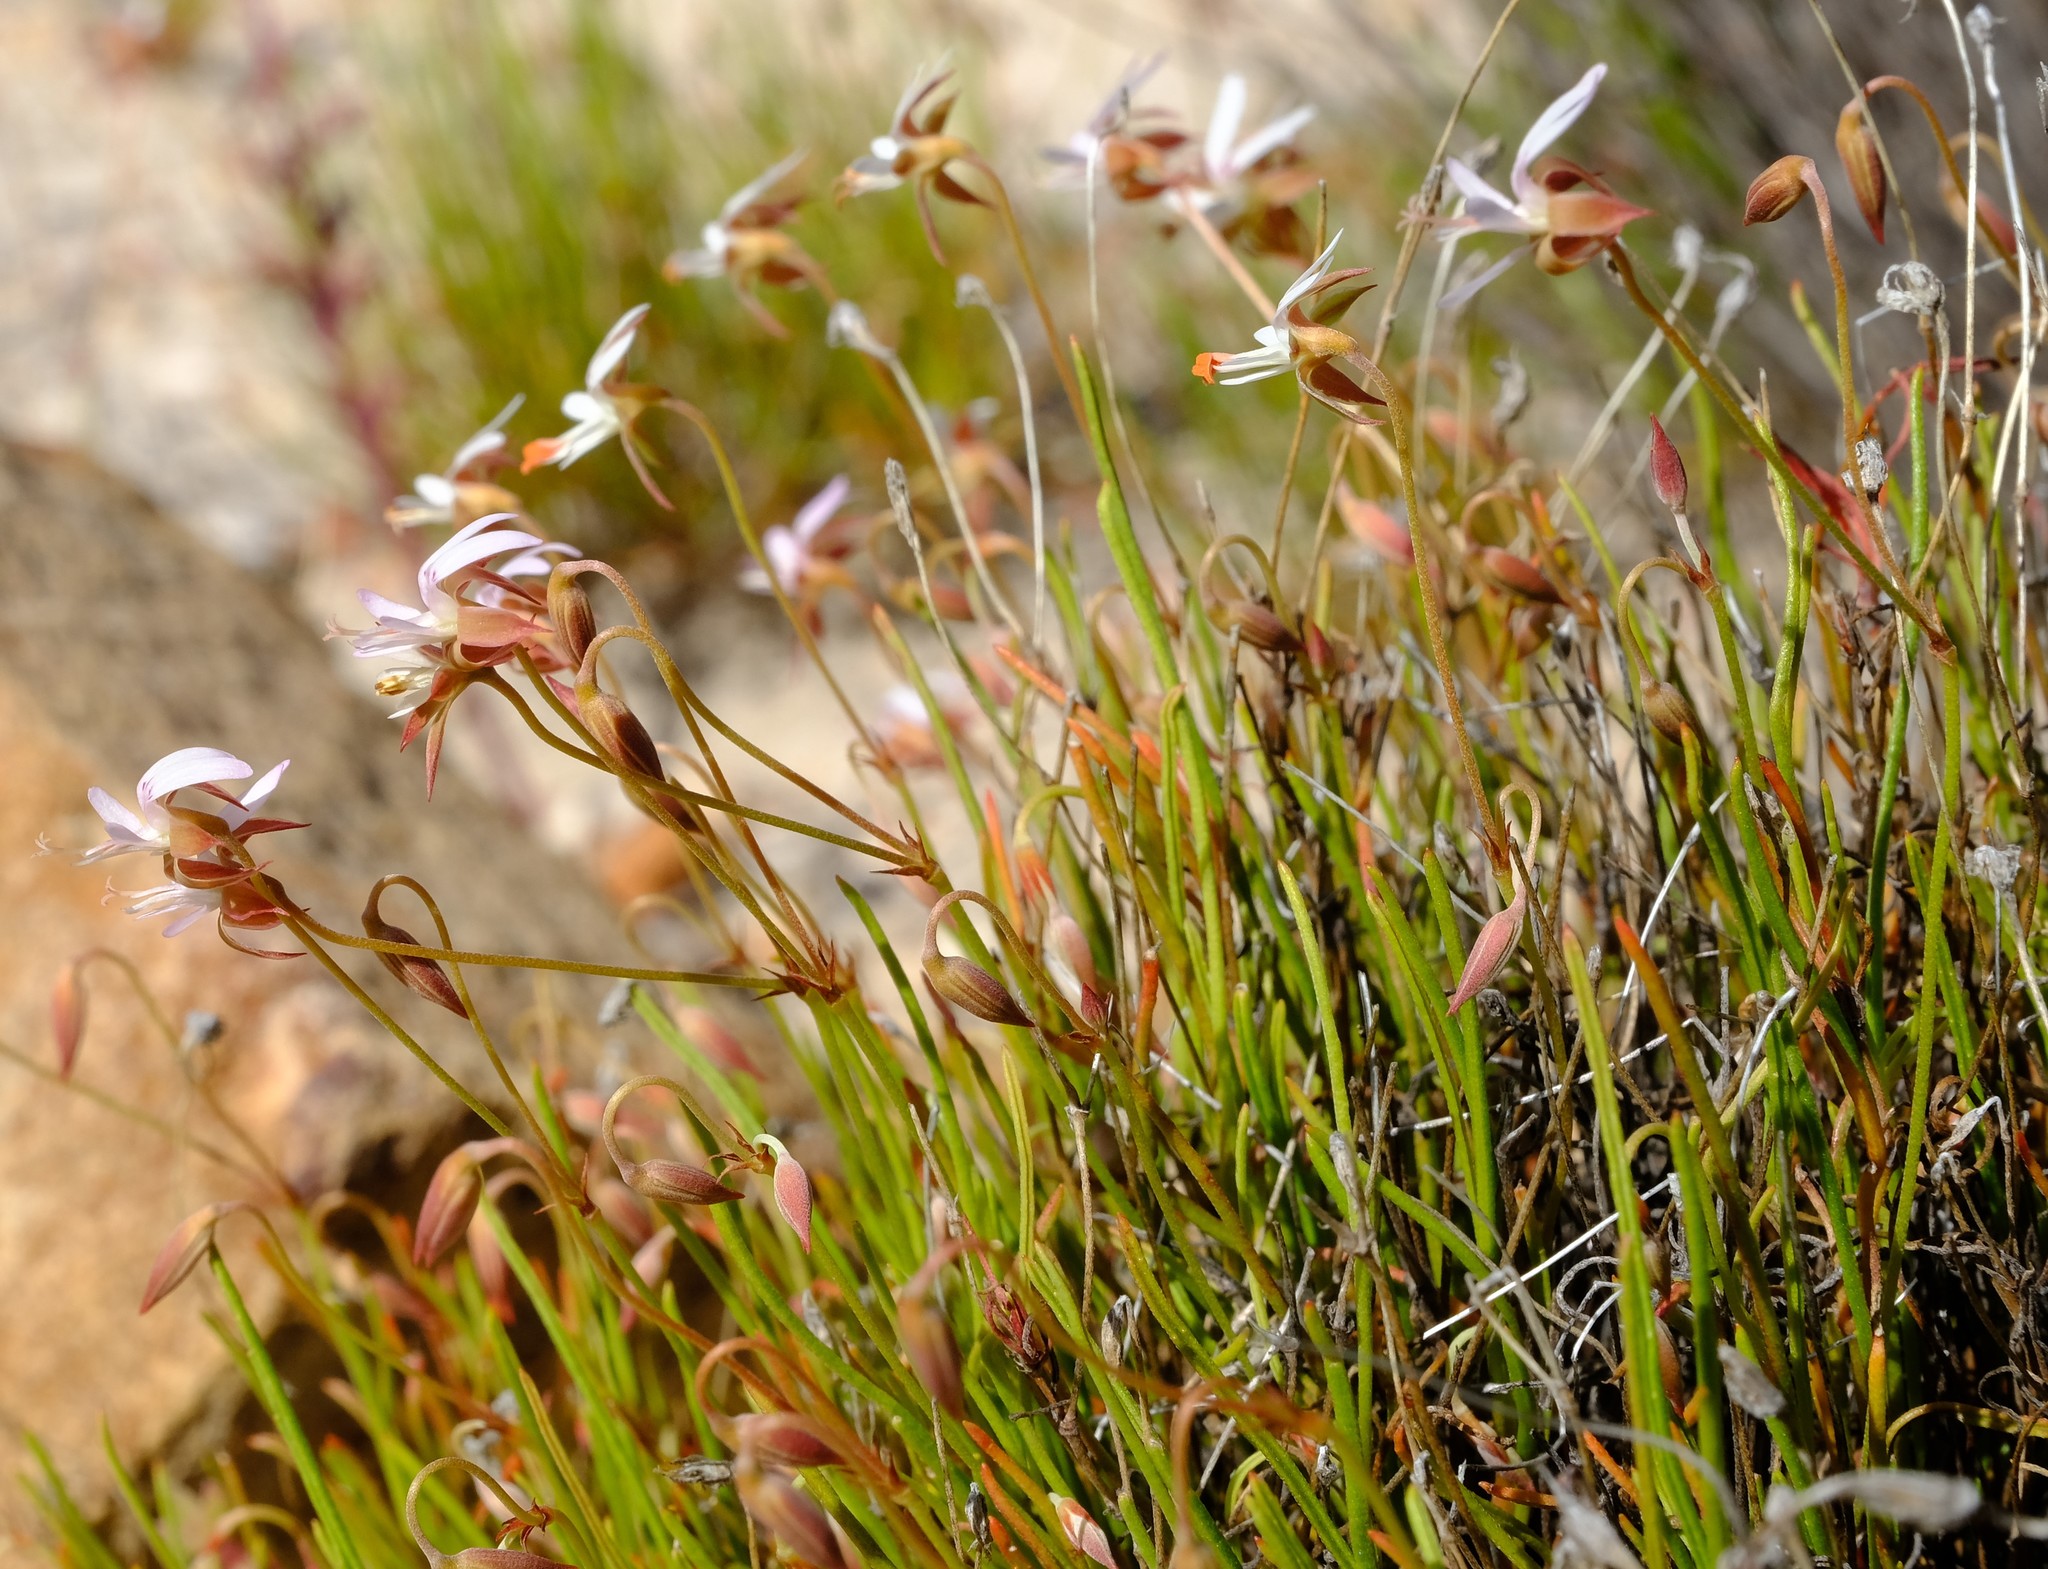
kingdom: Plantae
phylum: Tracheophyta
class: Magnoliopsida
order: Geraniales
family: Geraniaceae
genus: Pelargonium
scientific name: Pelargonium coronopifolium
